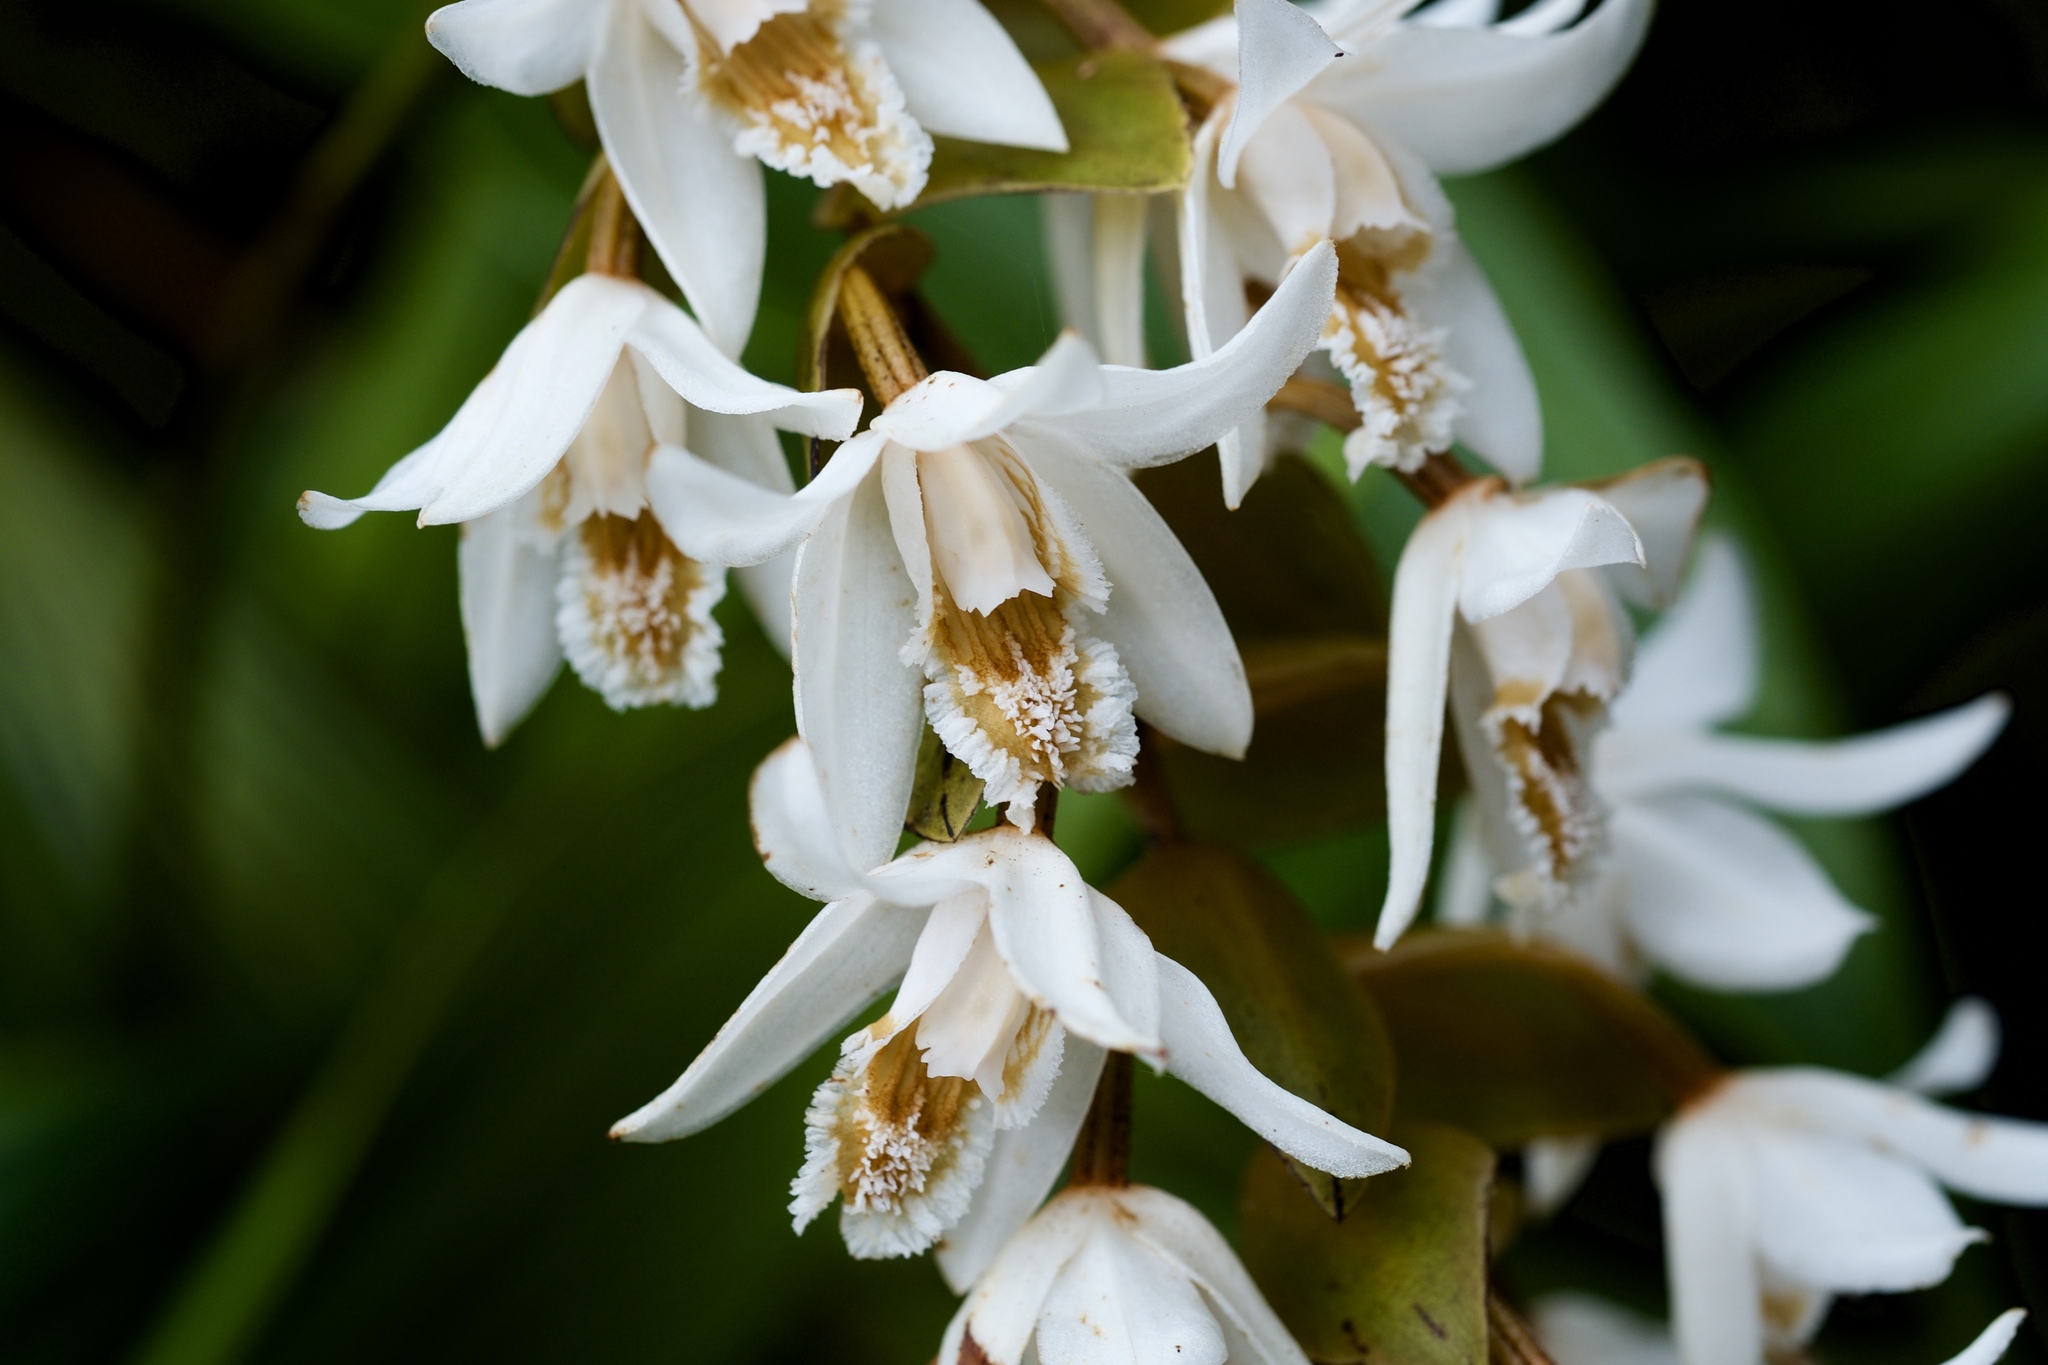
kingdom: Plantae
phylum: Tracheophyta
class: Liliopsida
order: Asparagales
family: Orchidaceae
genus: Coelogyne
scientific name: Coelogyne papillosa
